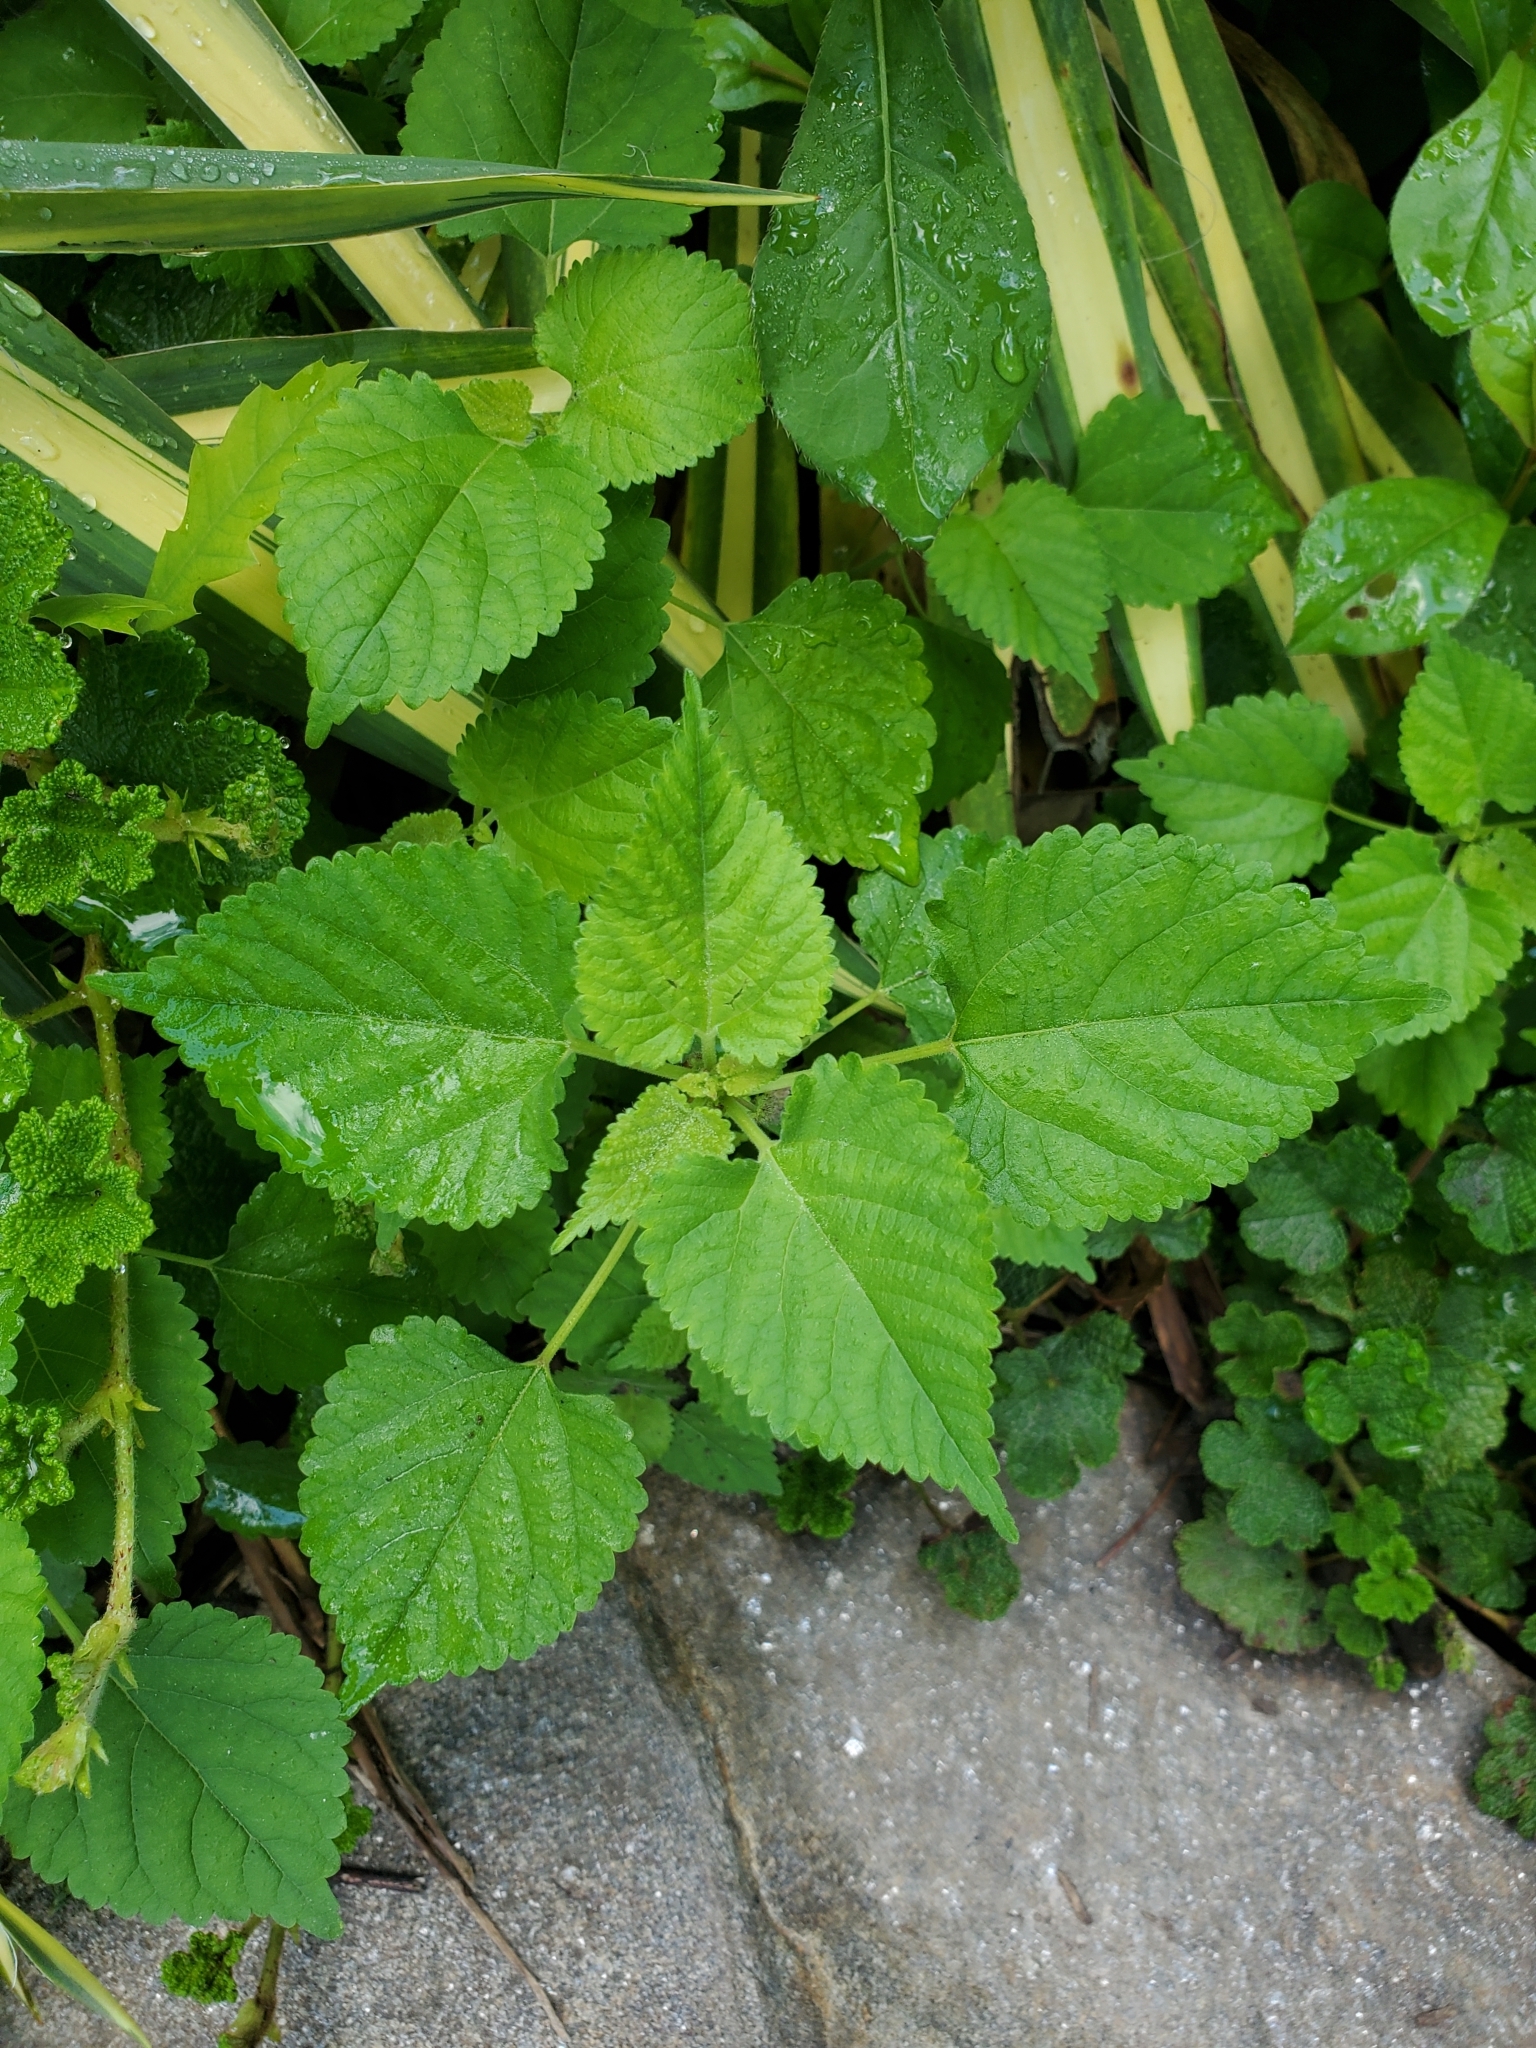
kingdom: Plantae
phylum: Tracheophyta
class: Magnoliopsida
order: Rosales
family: Moraceae
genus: Fatoua
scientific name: Fatoua villosa
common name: Hairy crabweed
